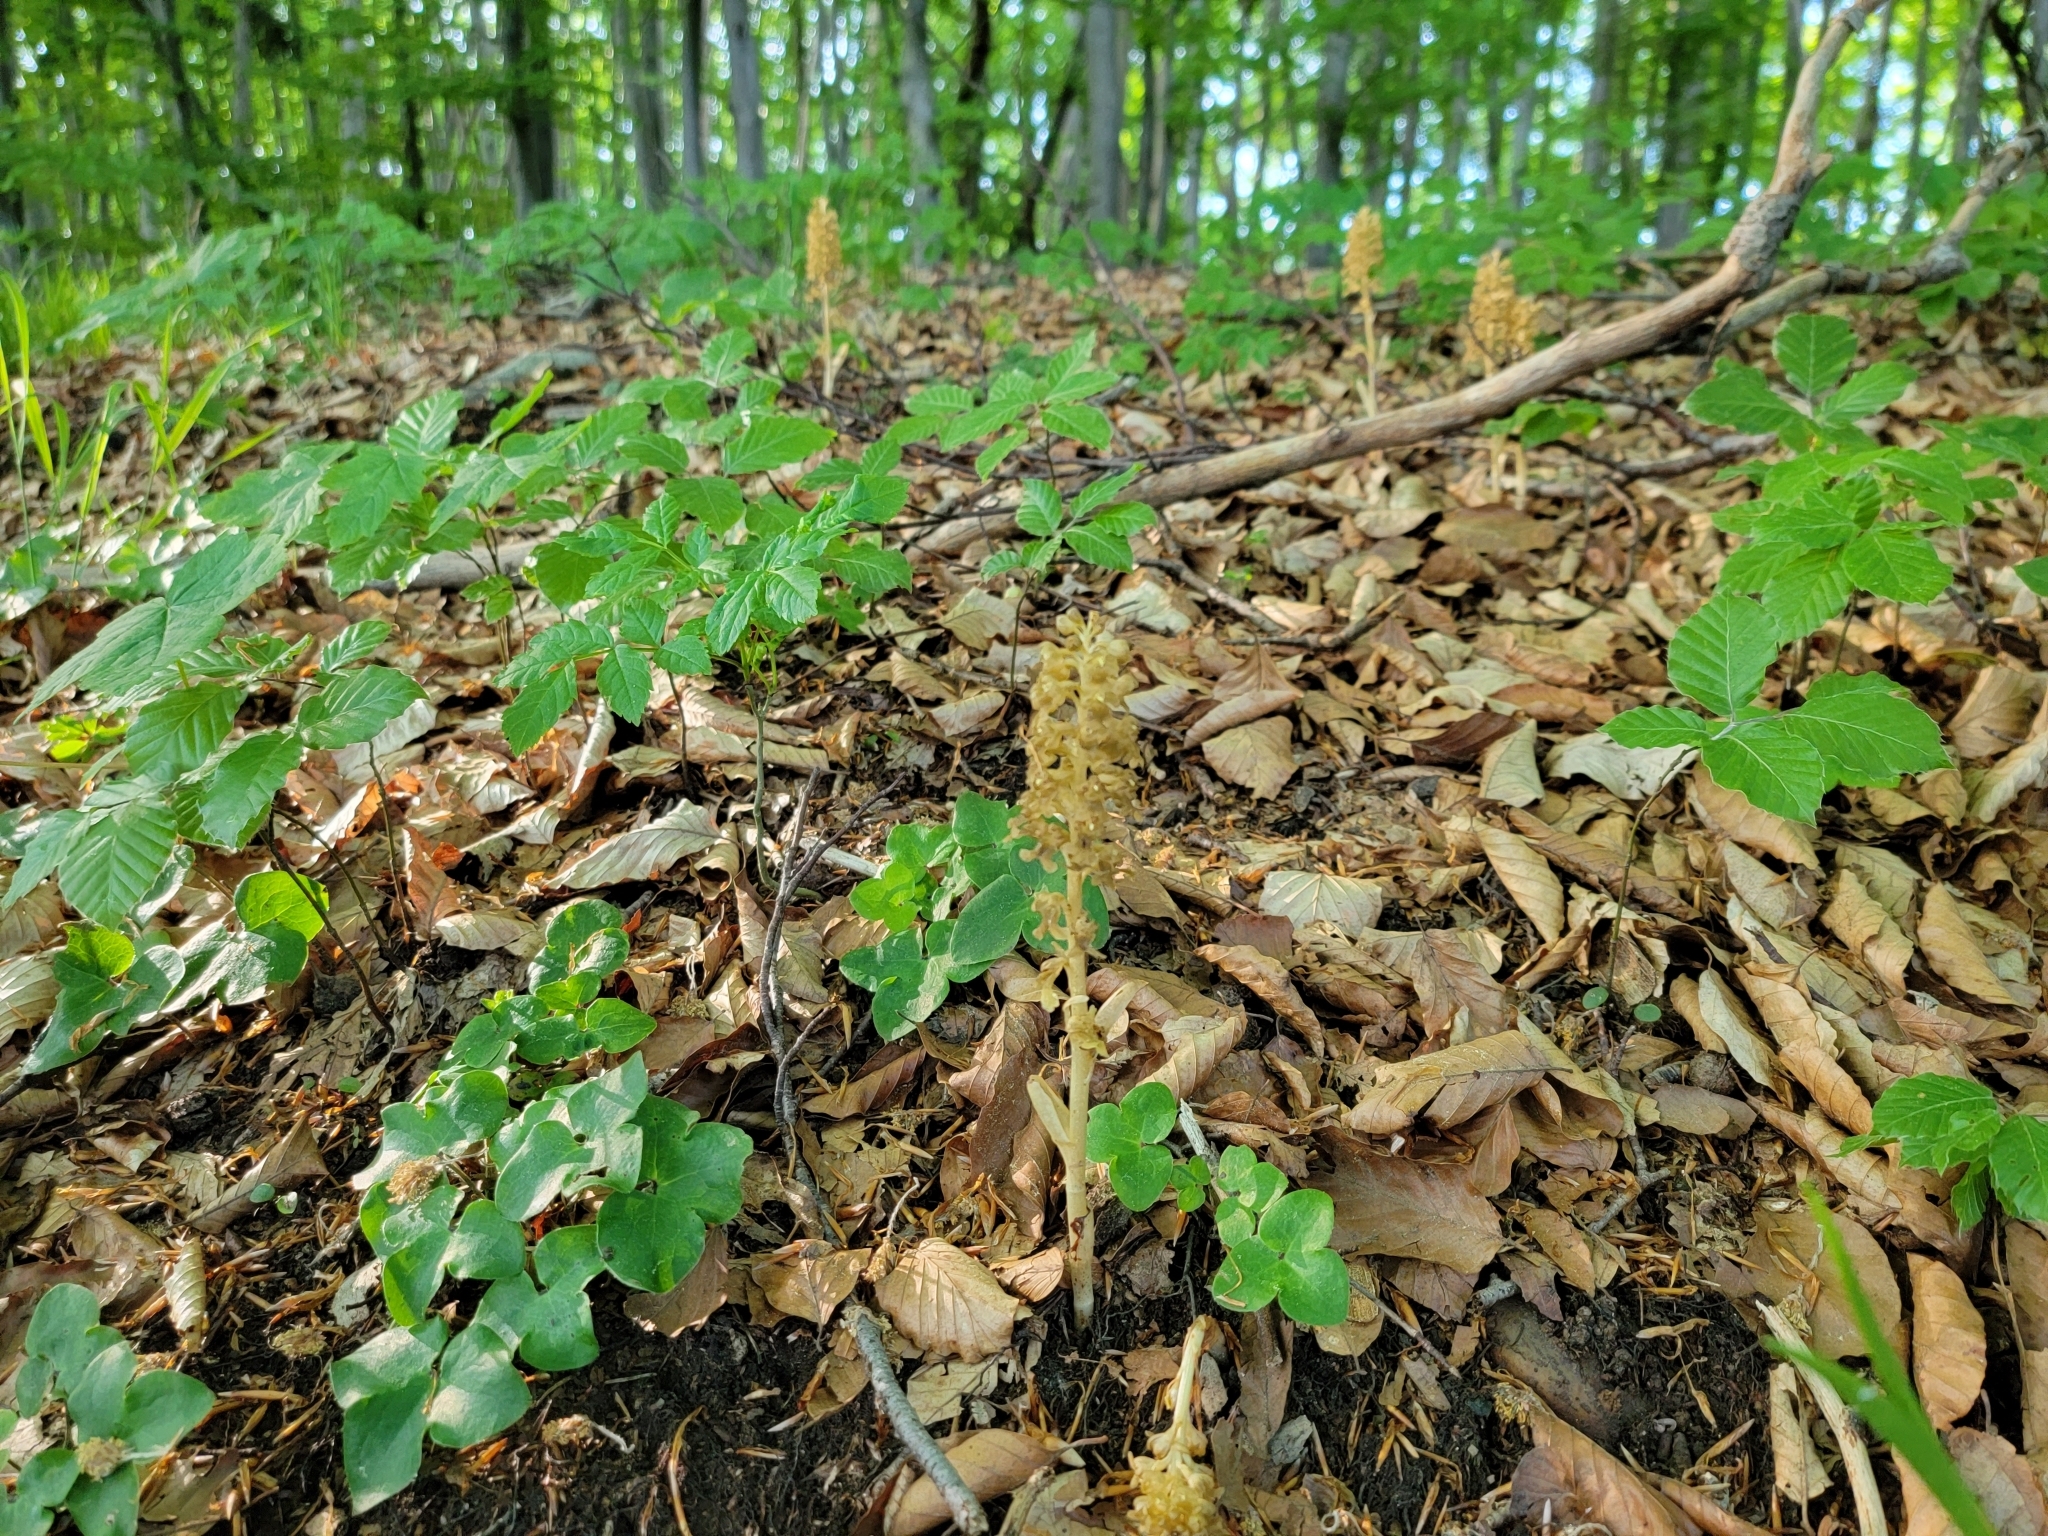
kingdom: Plantae
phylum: Tracheophyta
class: Liliopsida
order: Asparagales
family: Orchidaceae
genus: Neottia
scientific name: Neottia nidus-avis
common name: Bird's-nest orchid
